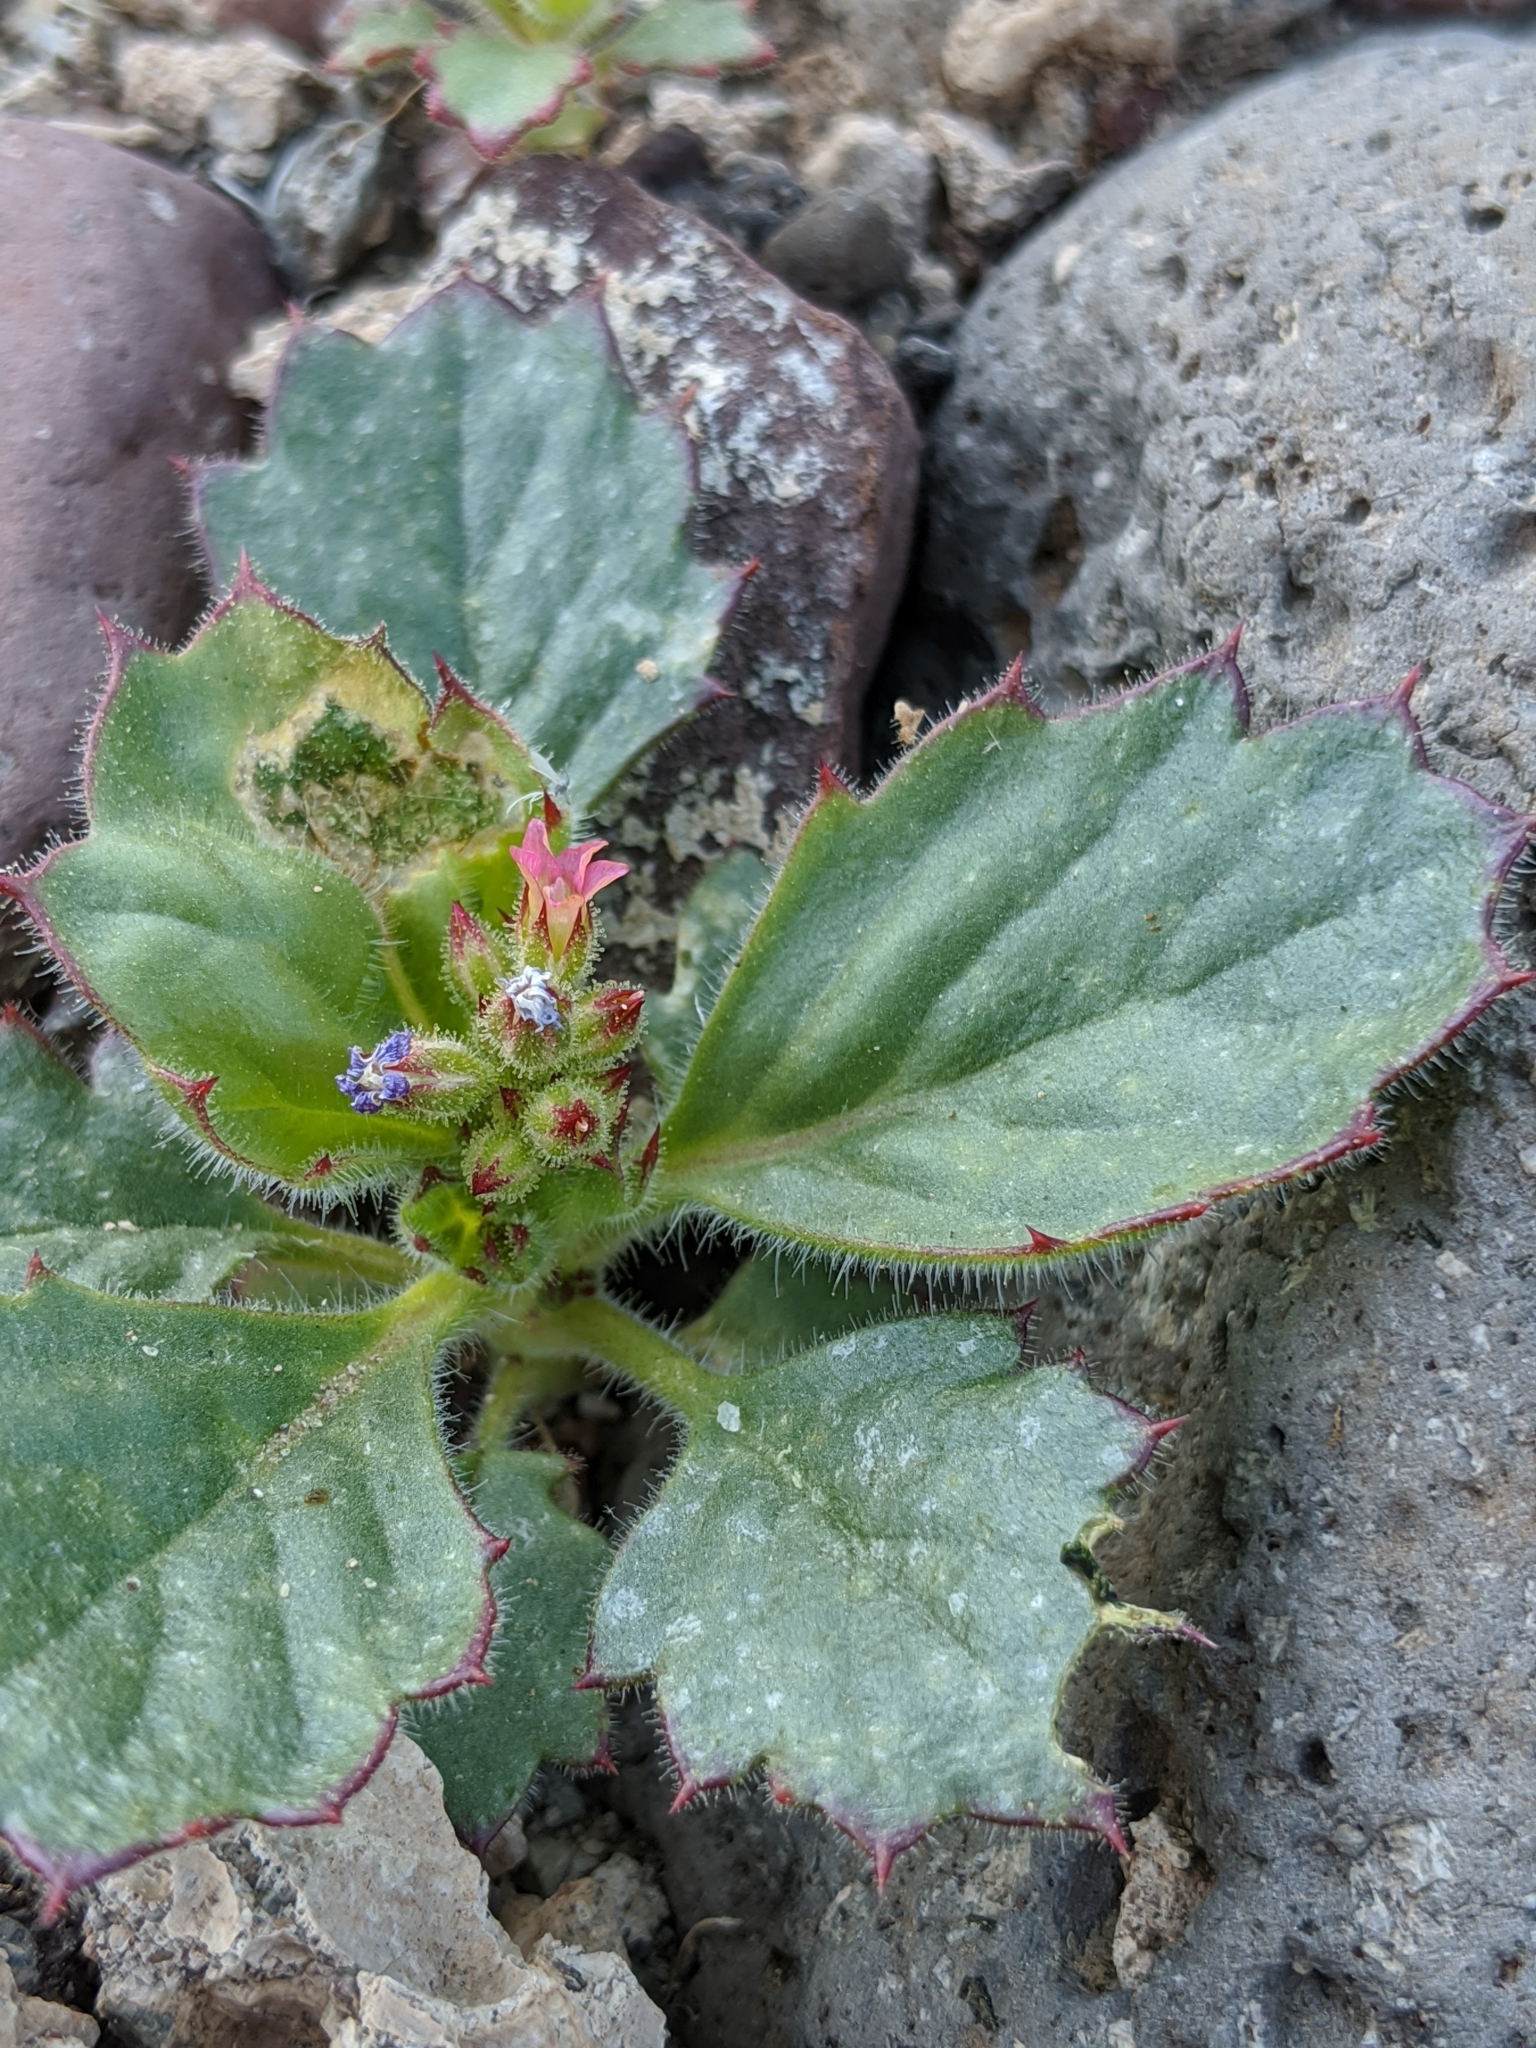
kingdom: Plantae
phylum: Tracheophyta
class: Magnoliopsida
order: Ericales
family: Polemoniaceae
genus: Aliciella
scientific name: Aliciella latifolia
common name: Broad-leaf gilia
